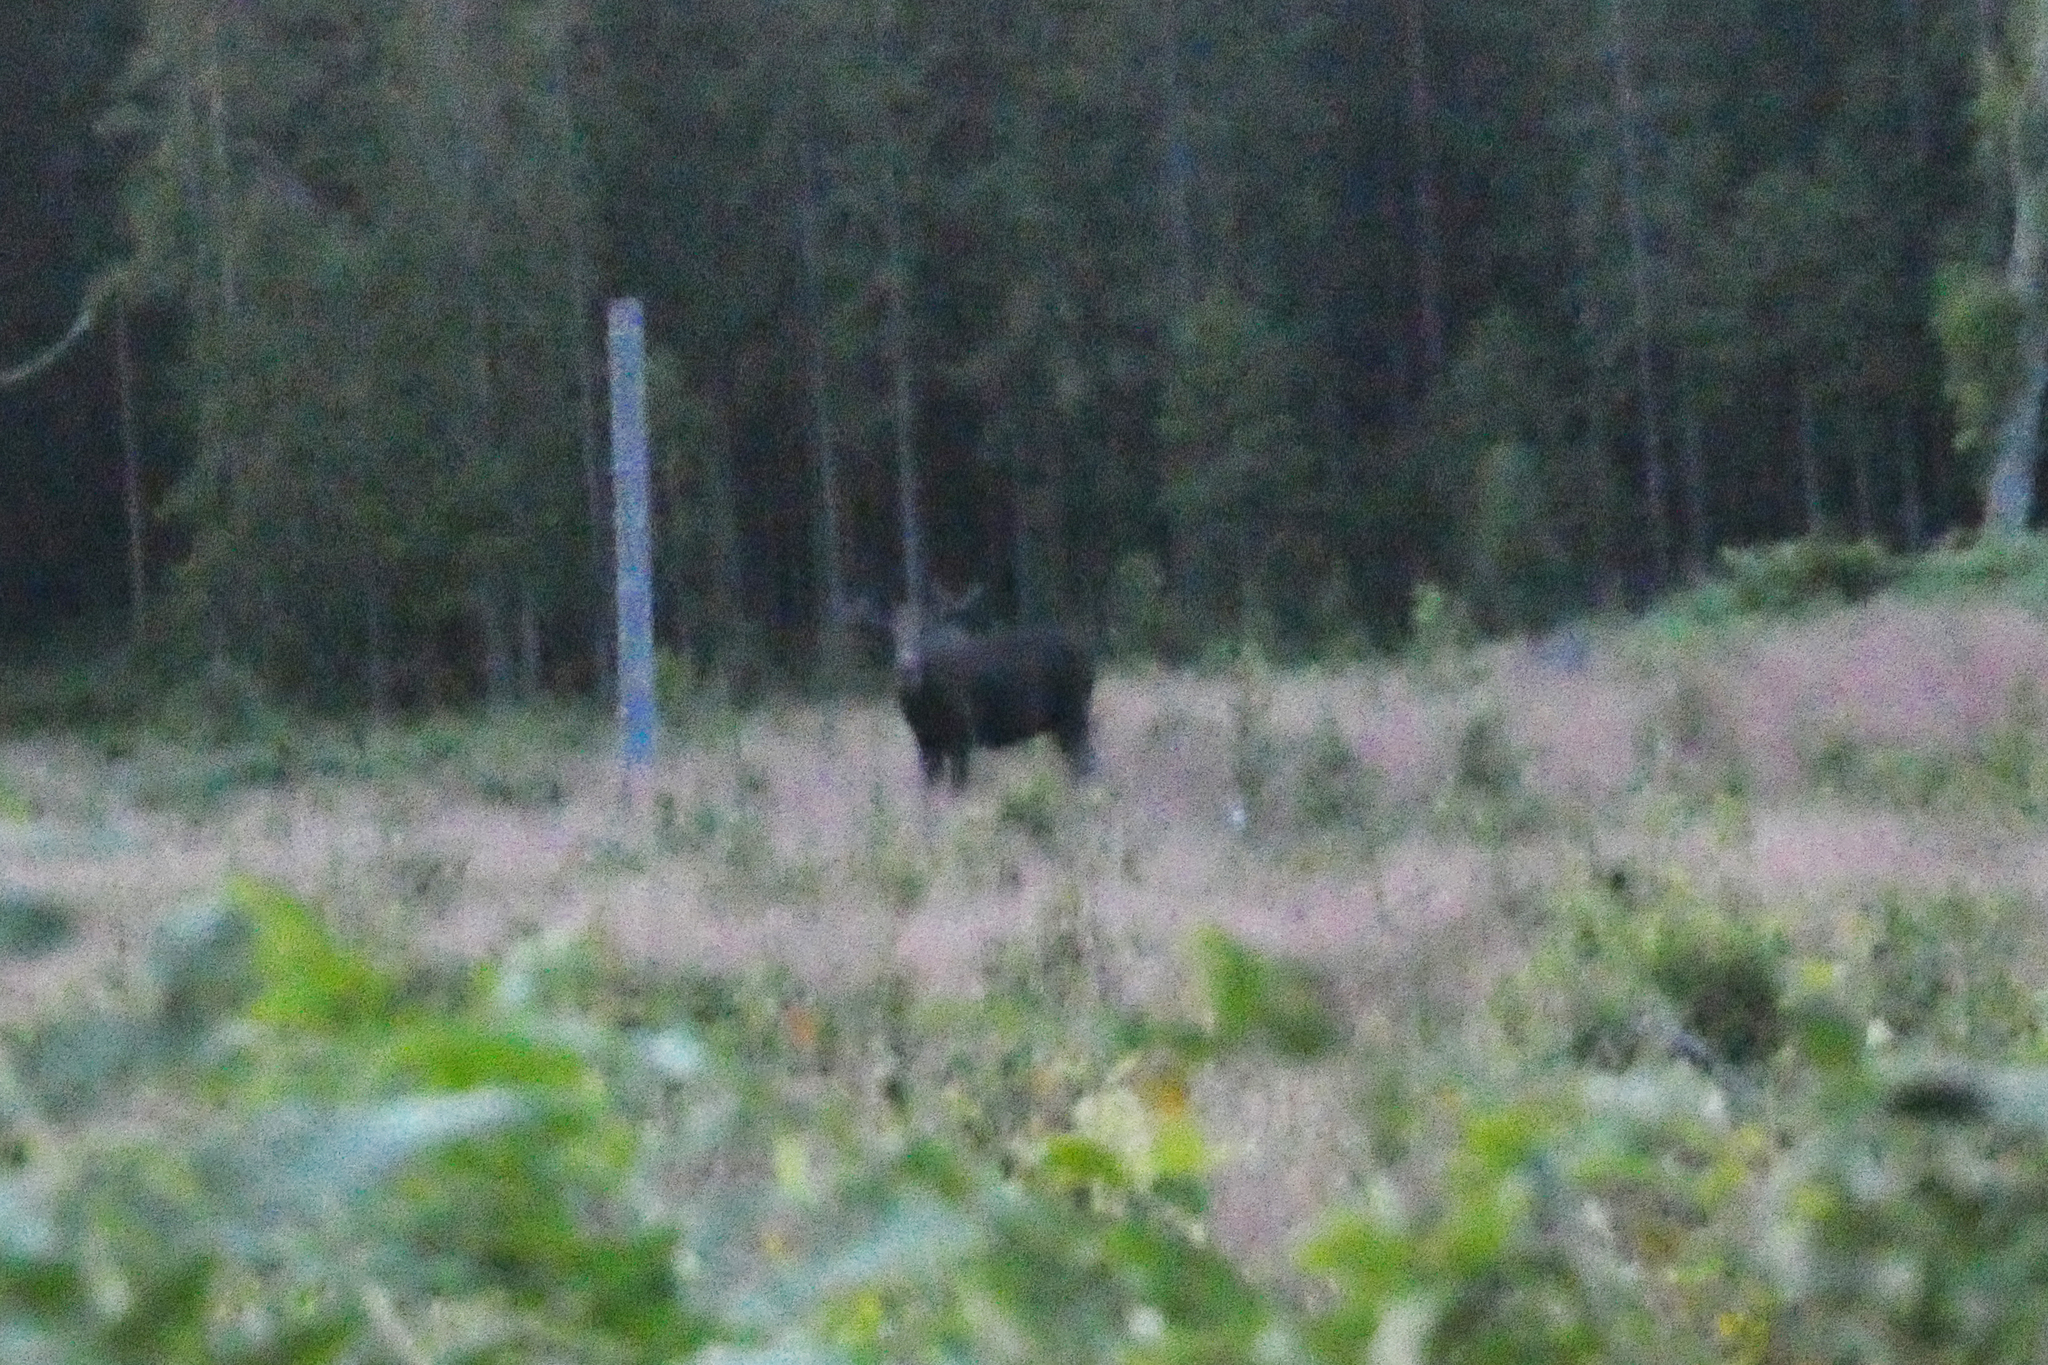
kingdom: Animalia
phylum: Chordata
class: Mammalia
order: Artiodactyla
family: Cervidae
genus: Alces
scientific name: Alces alces
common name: Moose
